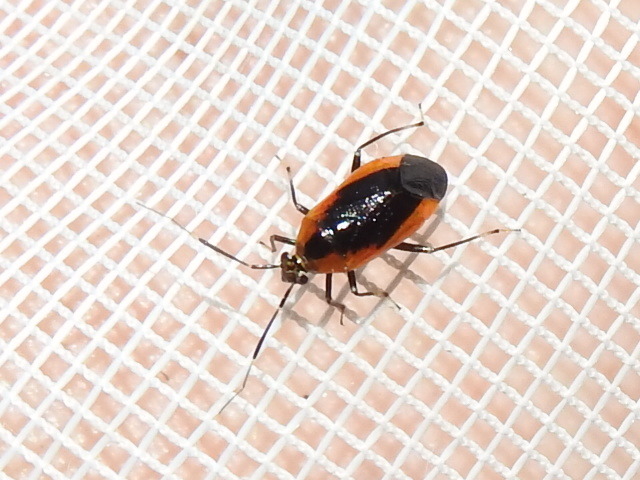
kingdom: Animalia
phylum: Arthropoda
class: Insecta
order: Hemiptera
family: Miridae
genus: Metriorrhynchomiris
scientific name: Metriorrhynchomiris dislocatus
